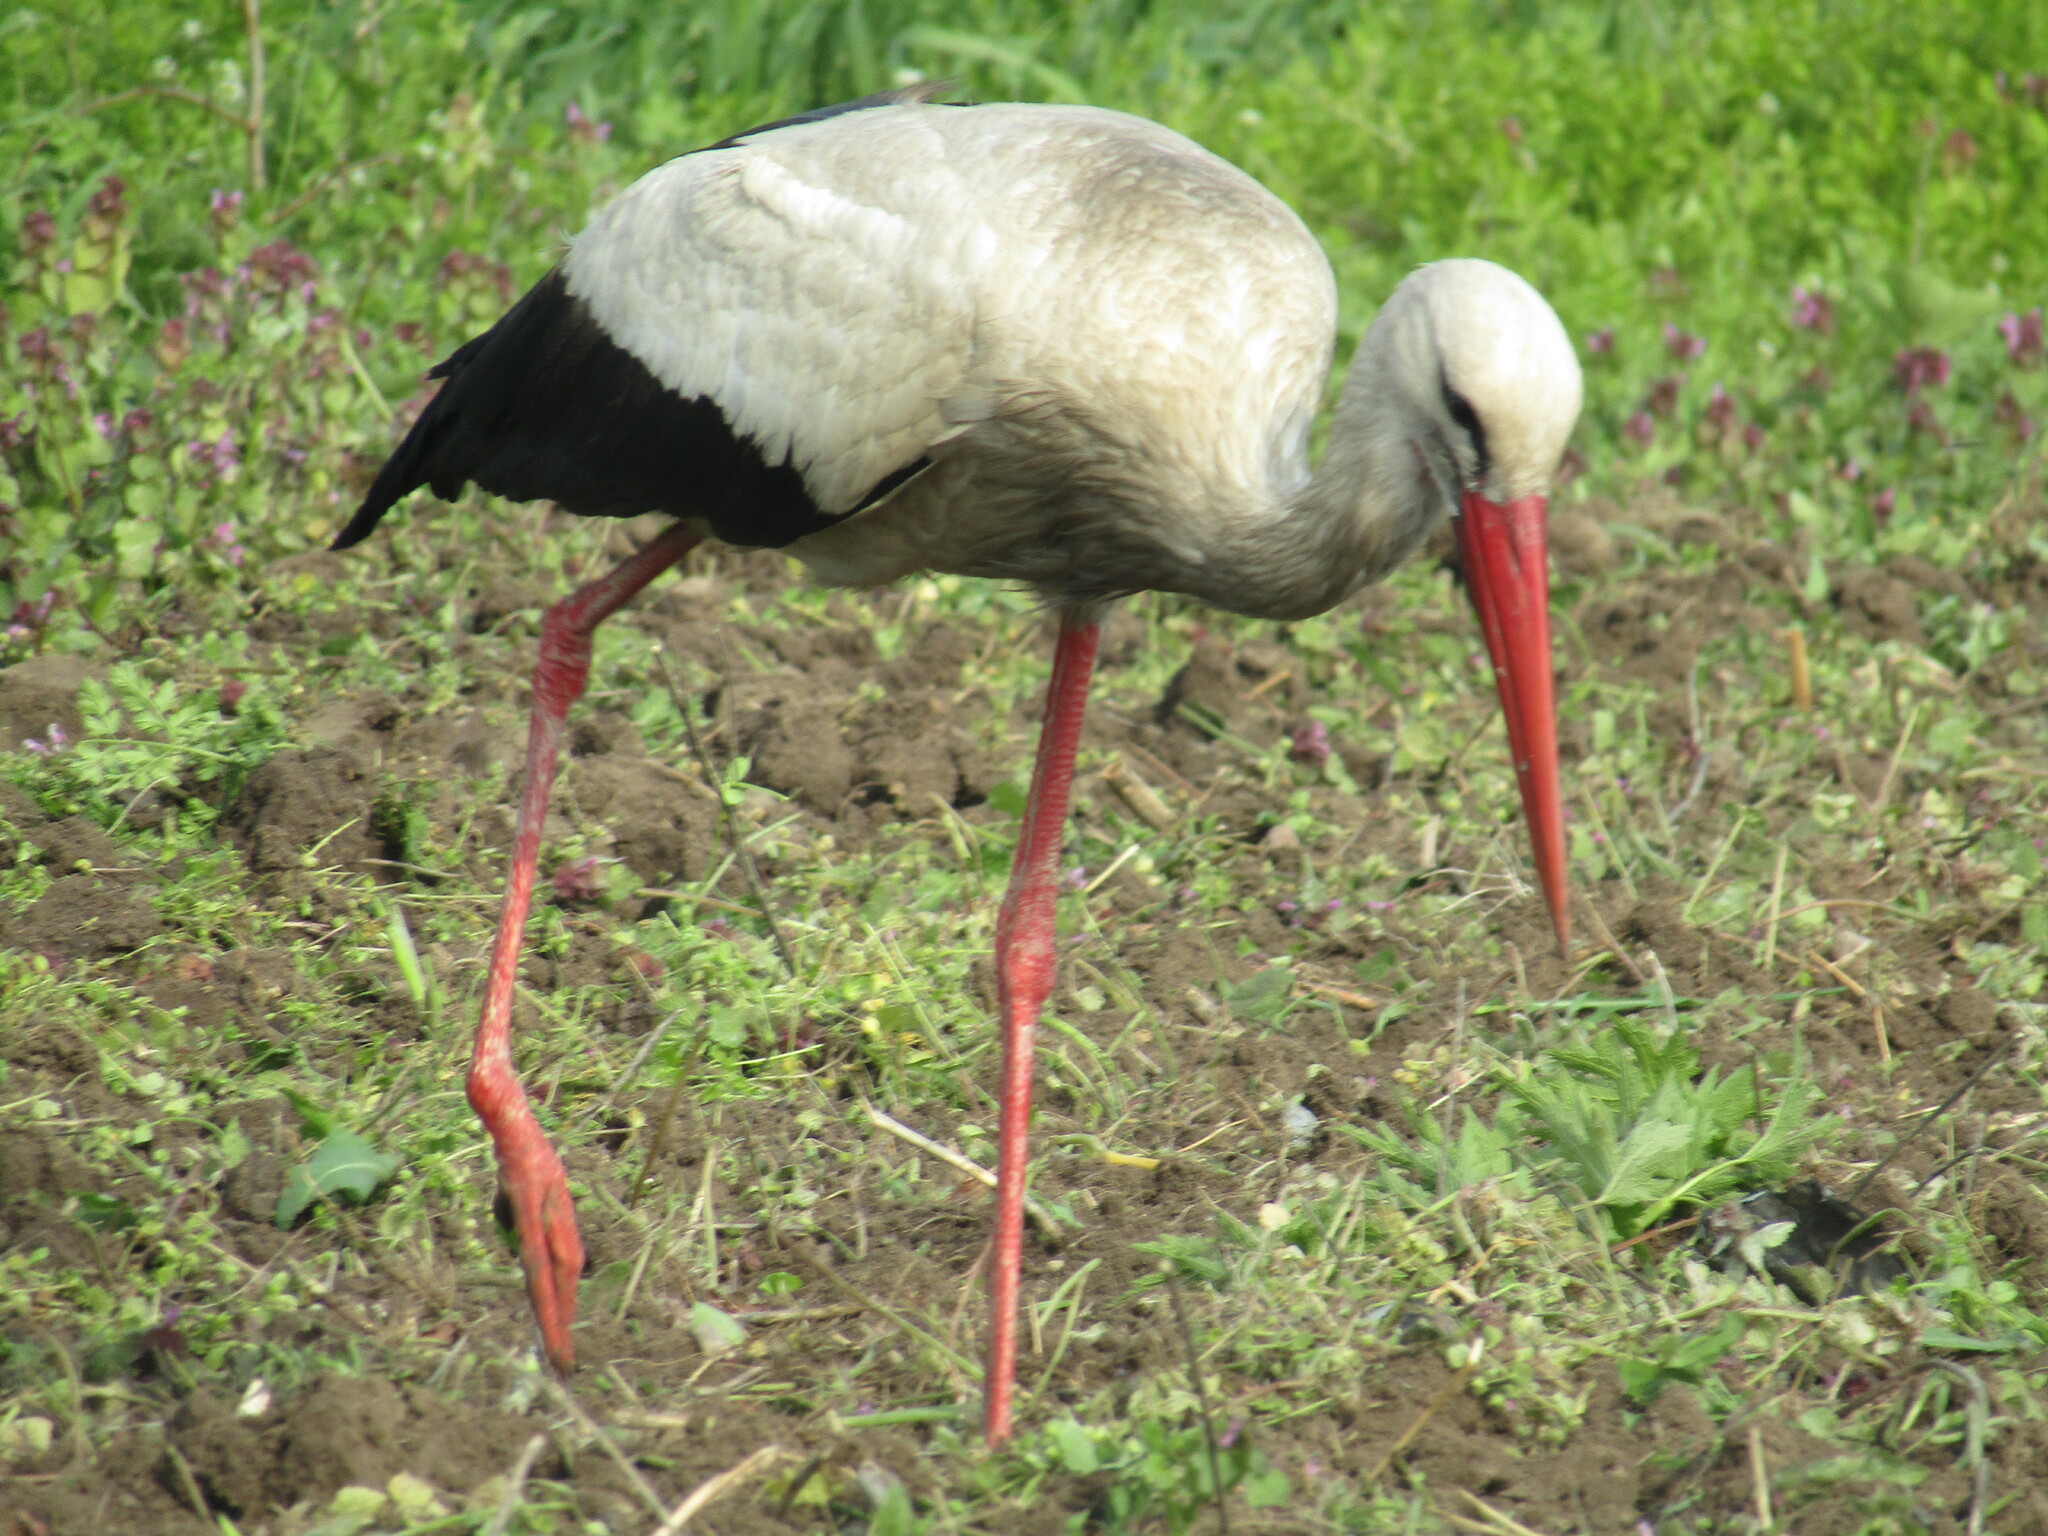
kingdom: Animalia
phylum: Chordata
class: Aves
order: Ciconiiformes
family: Ciconiidae
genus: Ciconia
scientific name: Ciconia ciconia
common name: White stork
